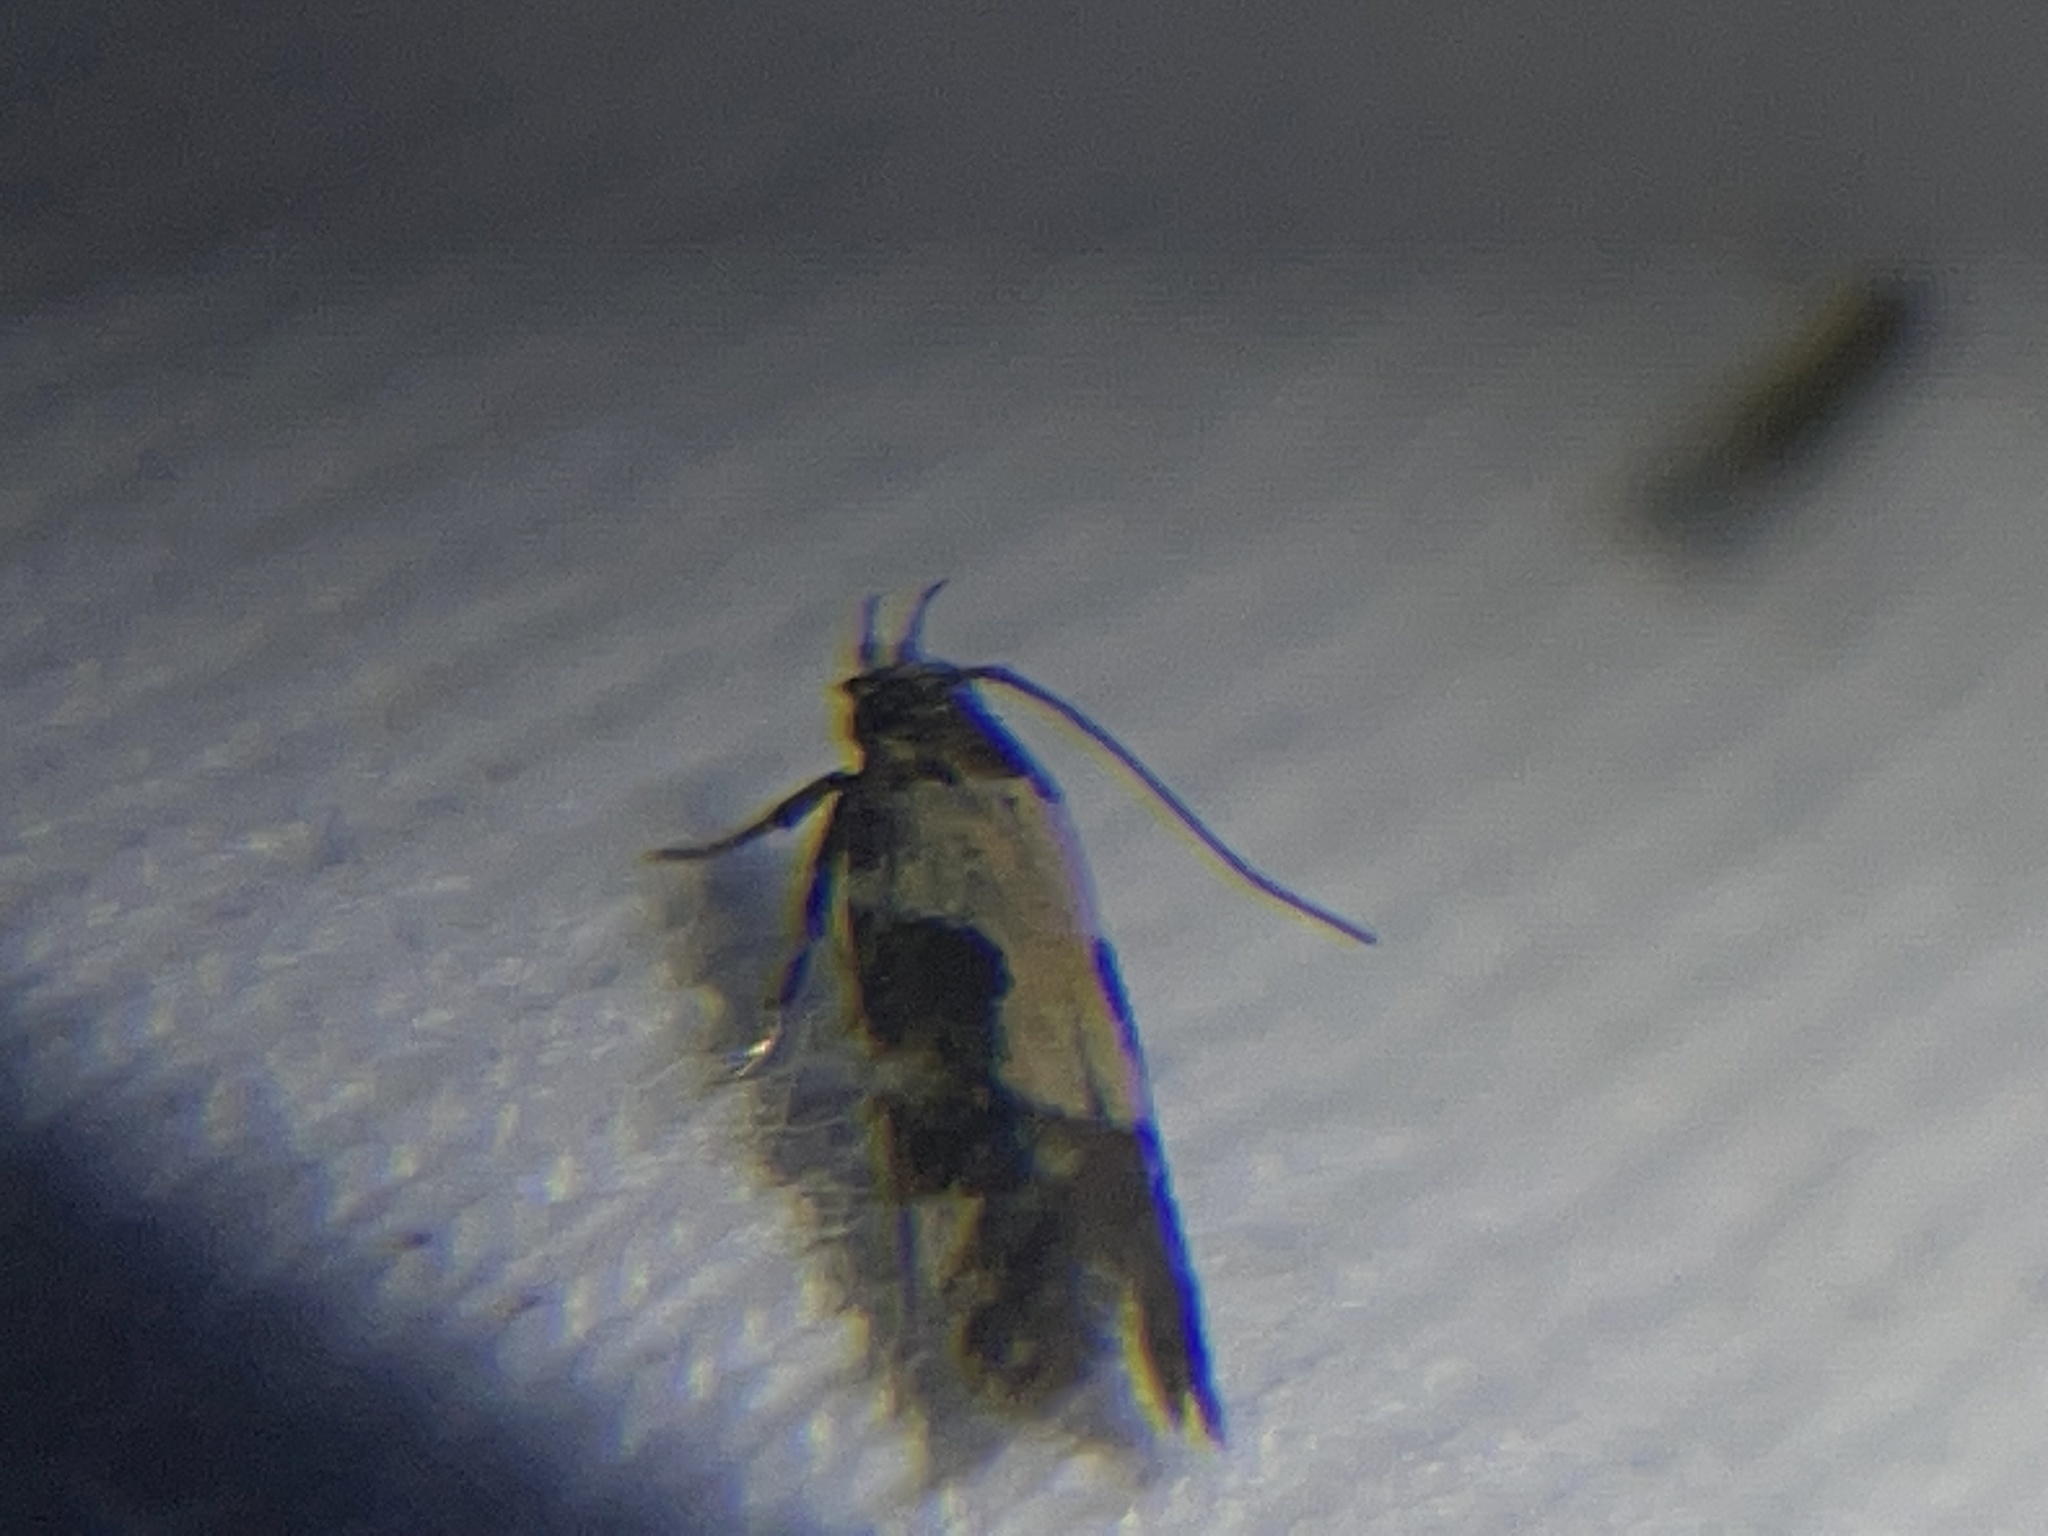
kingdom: Animalia
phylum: Arthropoda
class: Insecta
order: Lepidoptera
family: Gelechiidae
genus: Stegasta
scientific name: Stegasta bosqueella
